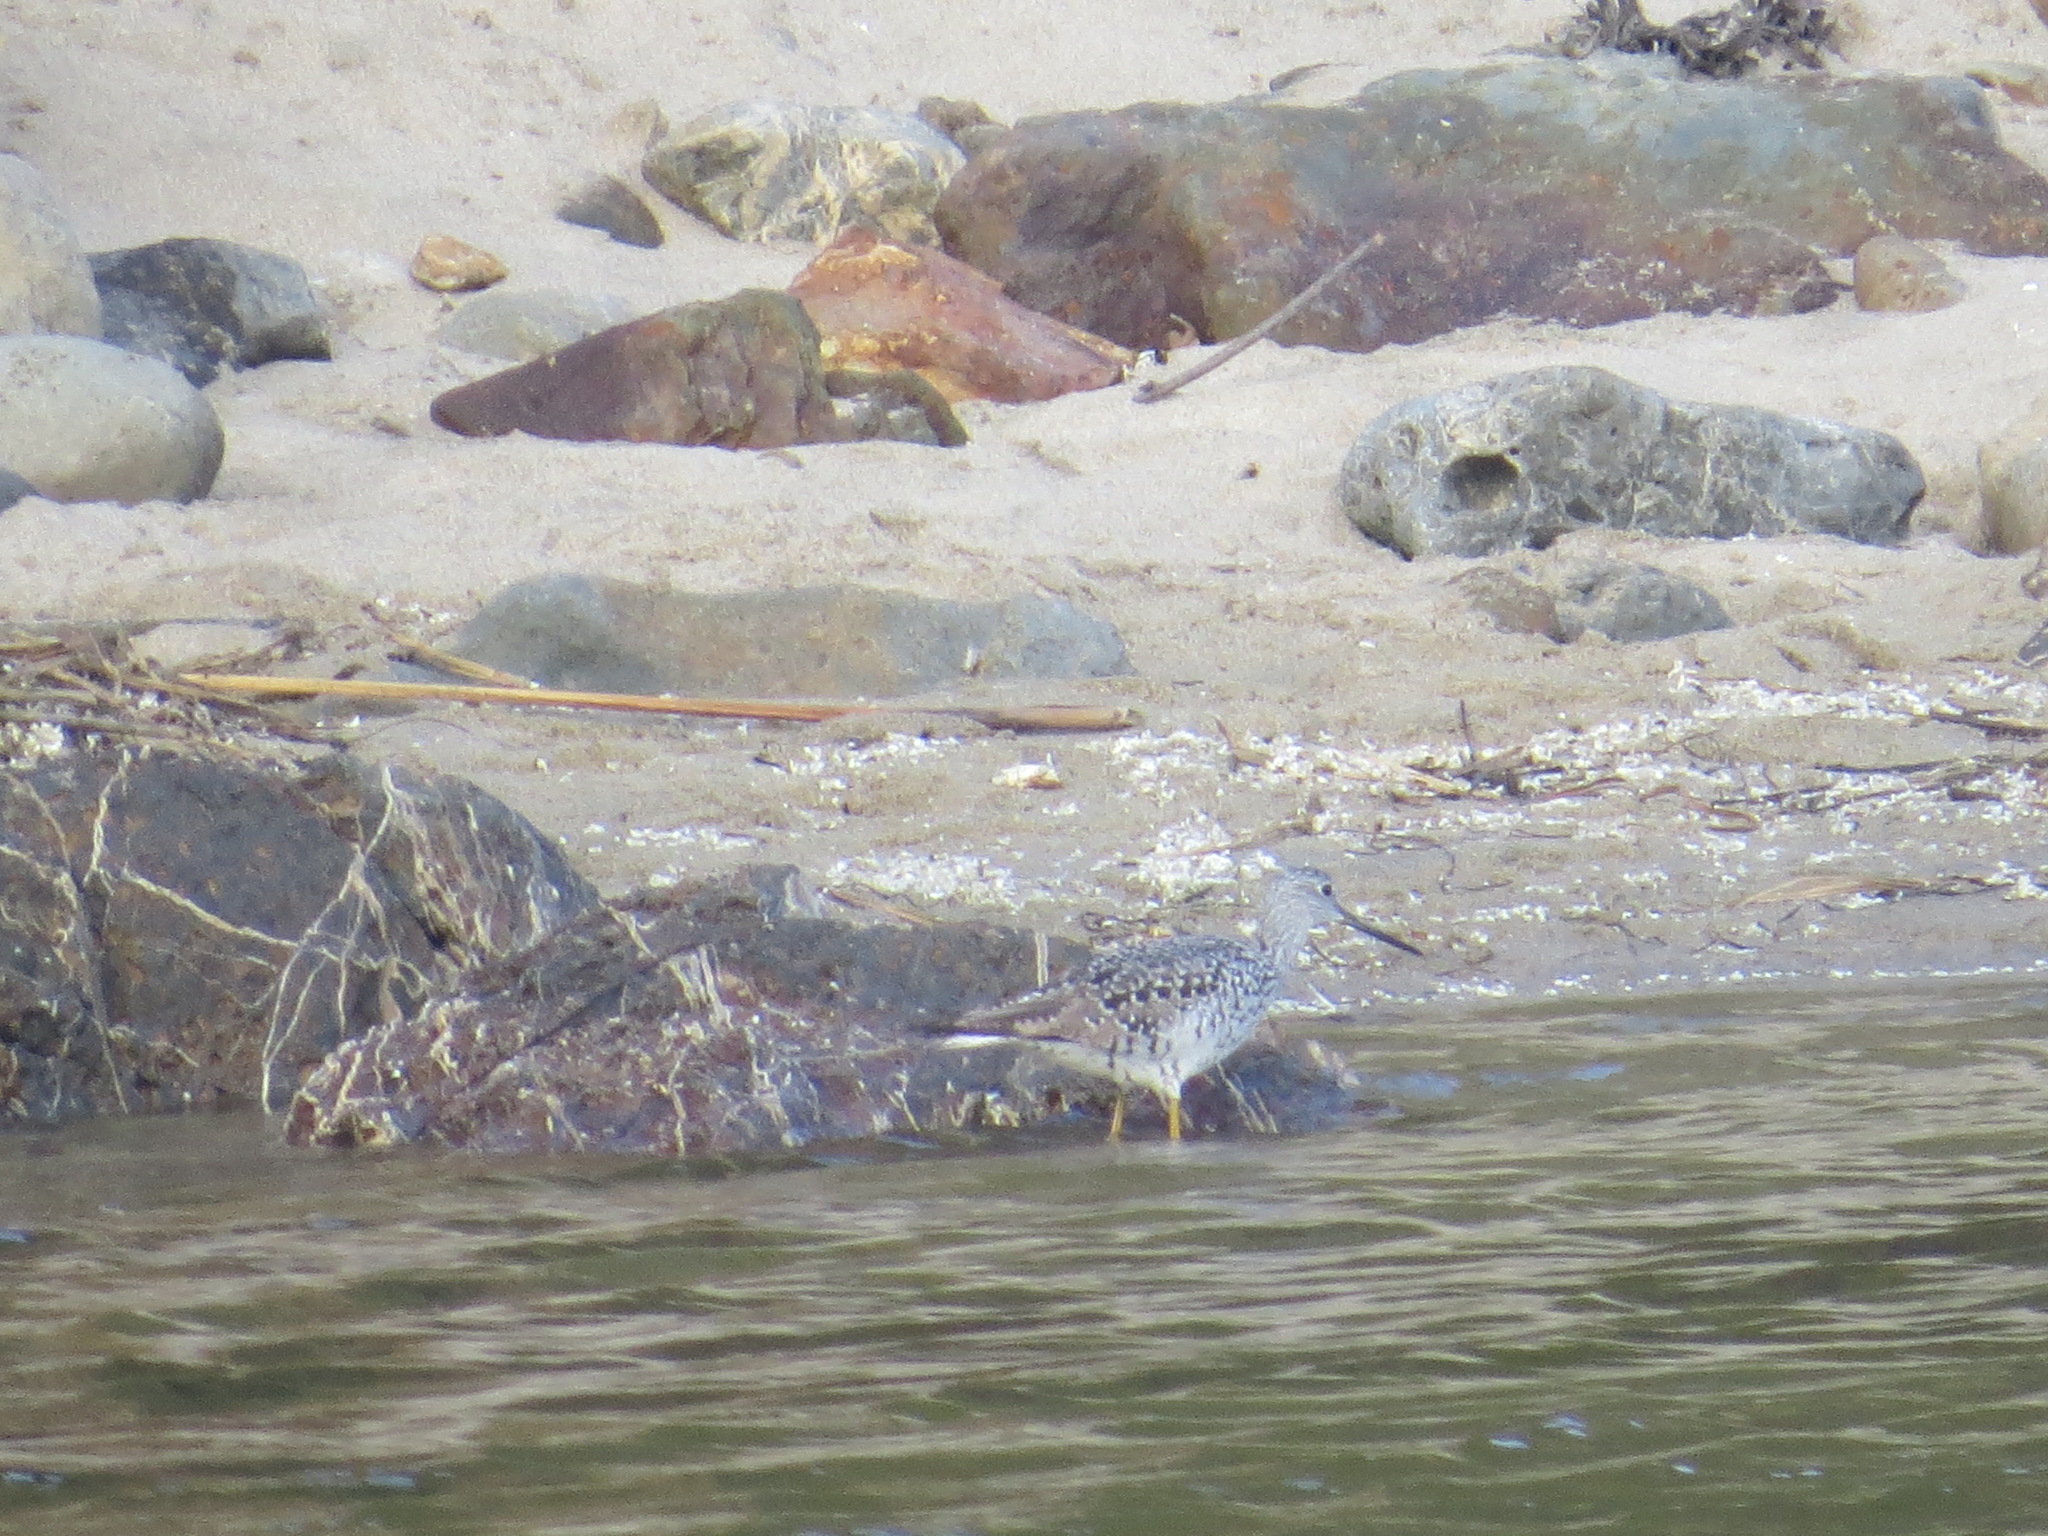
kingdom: Animalia
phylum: Chordata
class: Aves
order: Charadriiformes
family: Scolopacidae
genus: Tringa
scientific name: Tringa melanoleuca
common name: Greater yellowlegs
